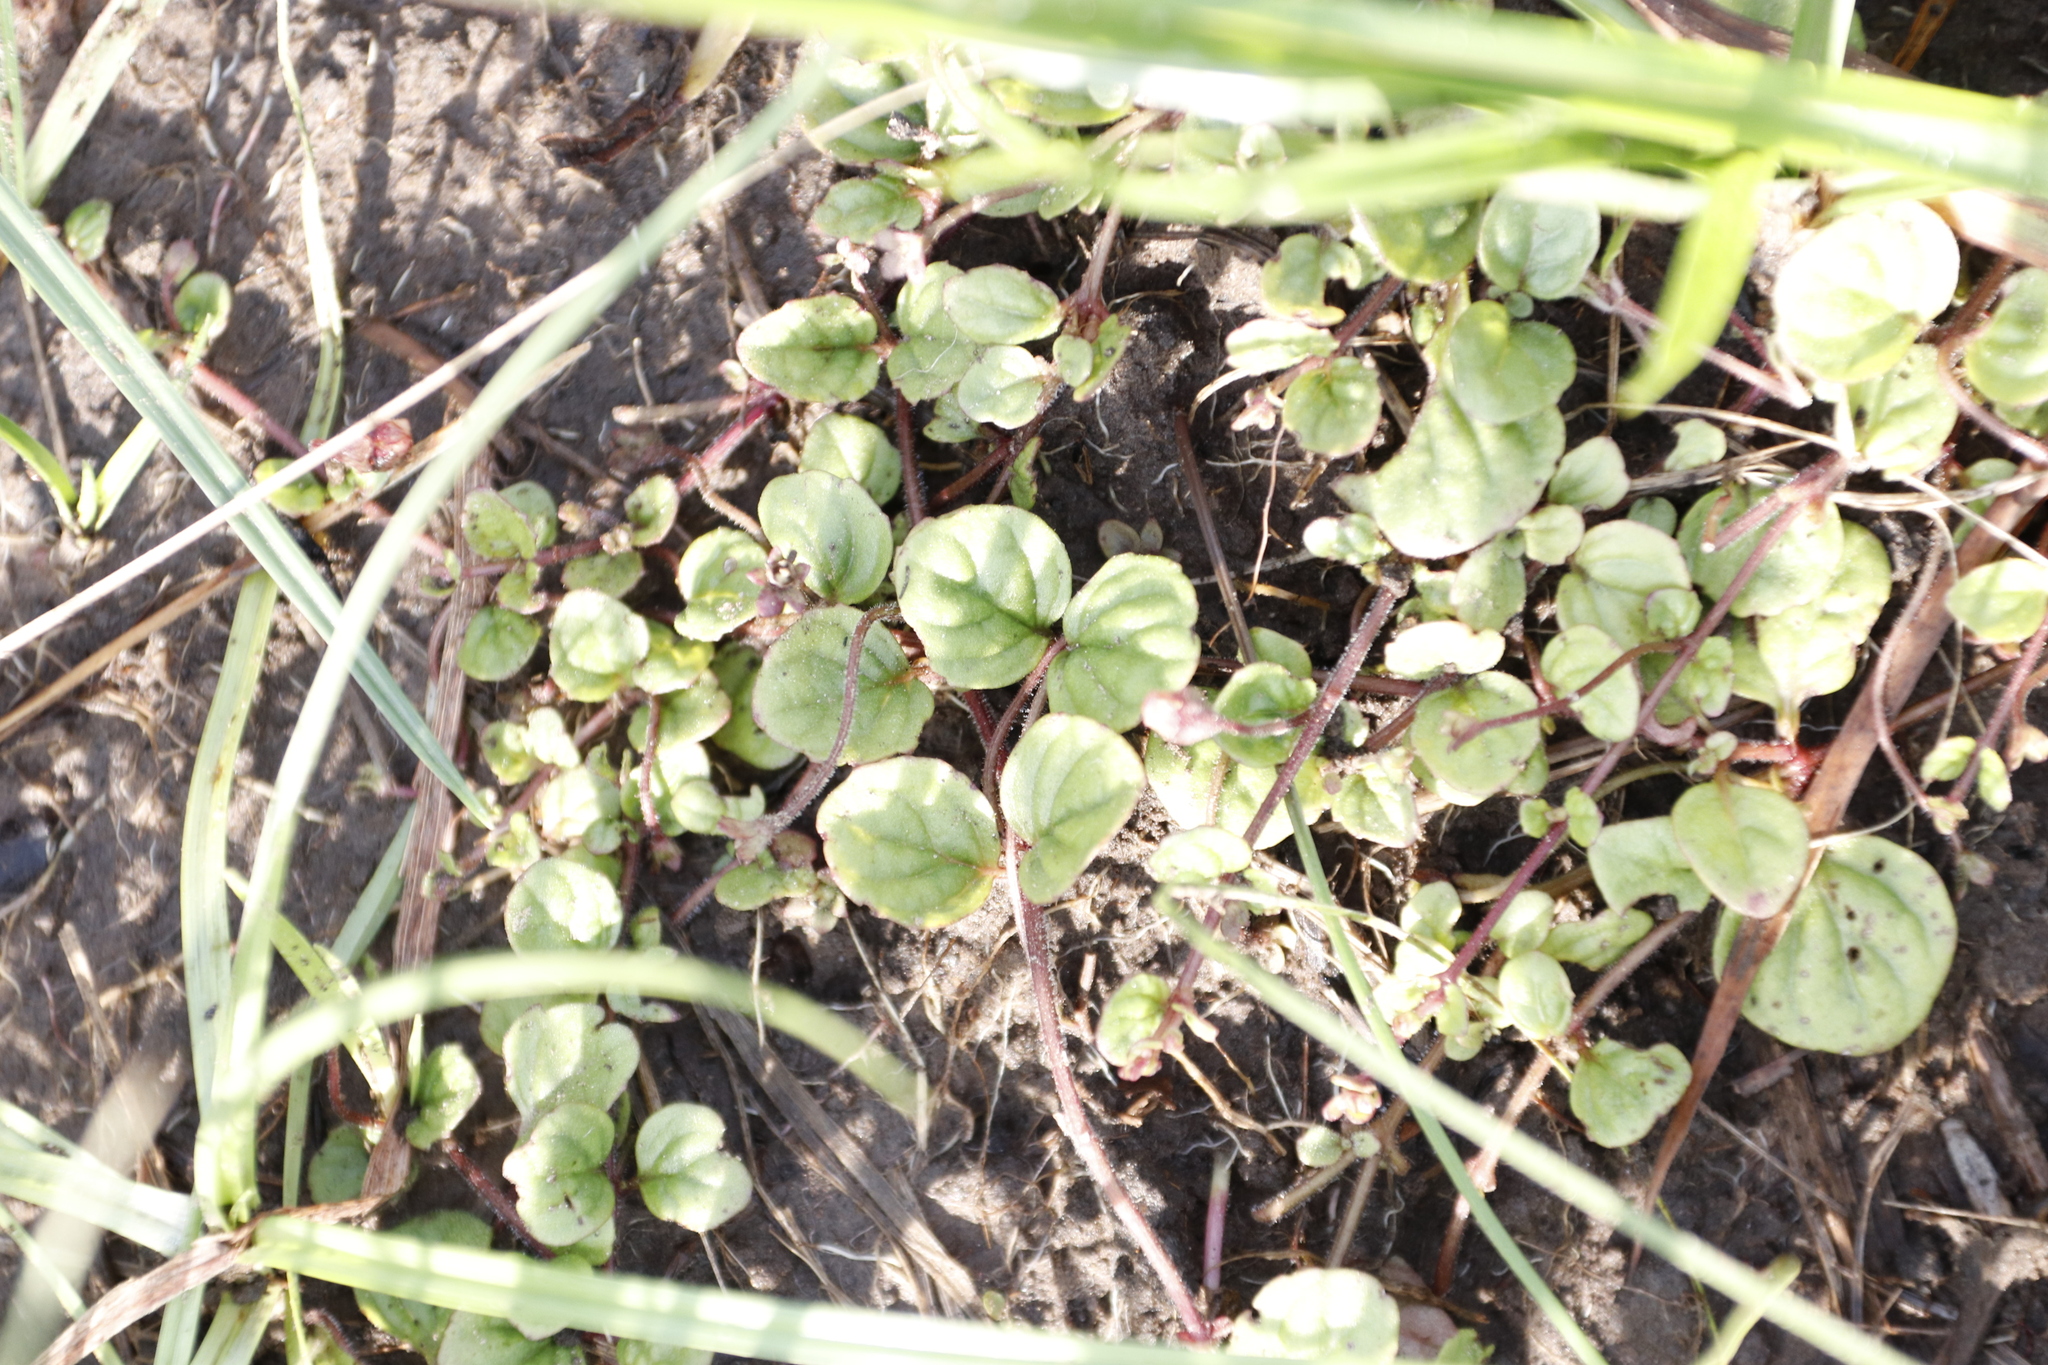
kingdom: Plantae
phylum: Tracheophyta
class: Magnoliopsida
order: Lamiales
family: Scrophulariaceae
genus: Diclis
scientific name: Diclis rotundifolia
